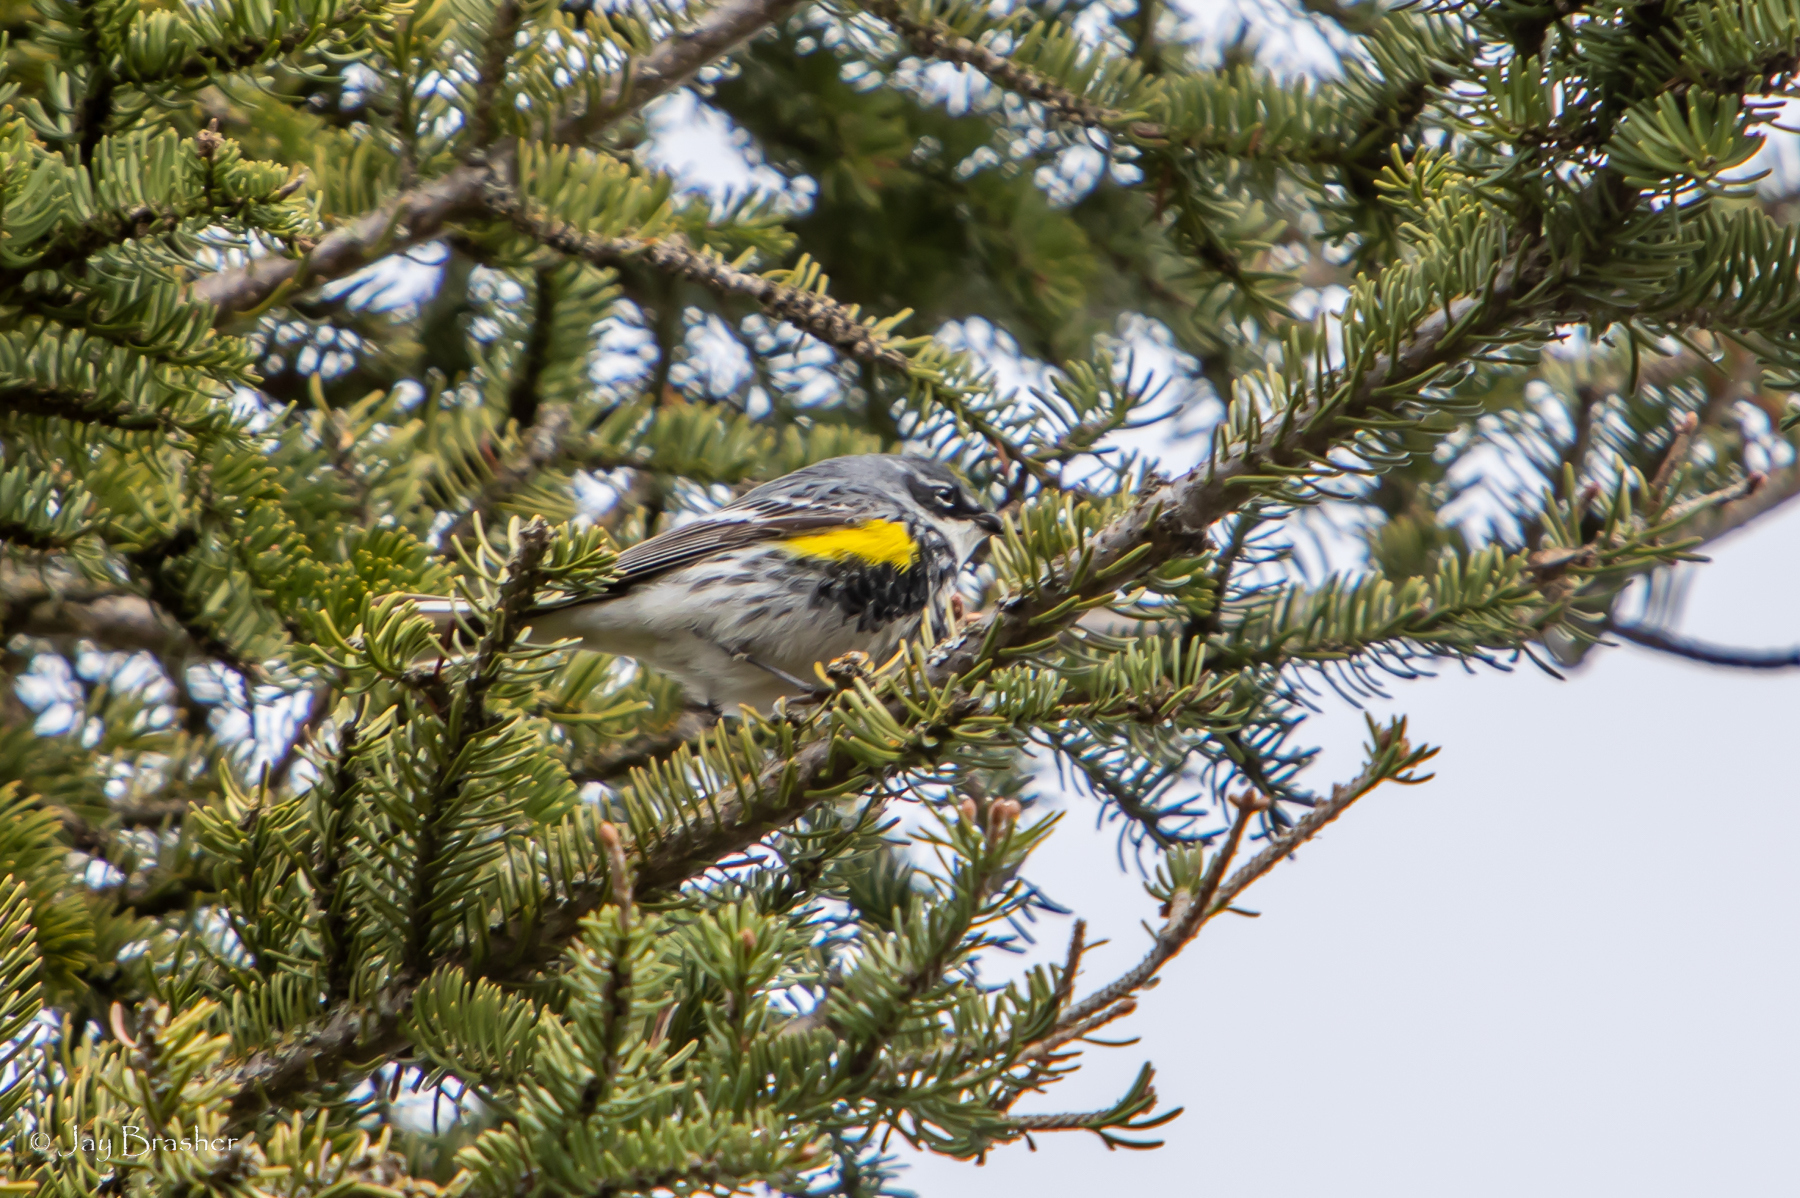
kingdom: Animalia
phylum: Chordata
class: Aves
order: Passeriformes
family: Parulidae
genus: Setophaga
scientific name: Setophaga coronata
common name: Myrtle warbler
